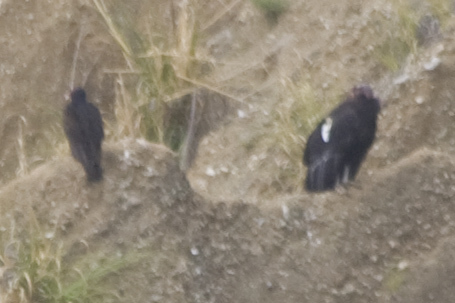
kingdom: Animalia
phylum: Chordata
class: Aves
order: Accipitriformes
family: Cathartidae
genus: Gymnogyps
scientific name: Gymnogyps californianus
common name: California condor
